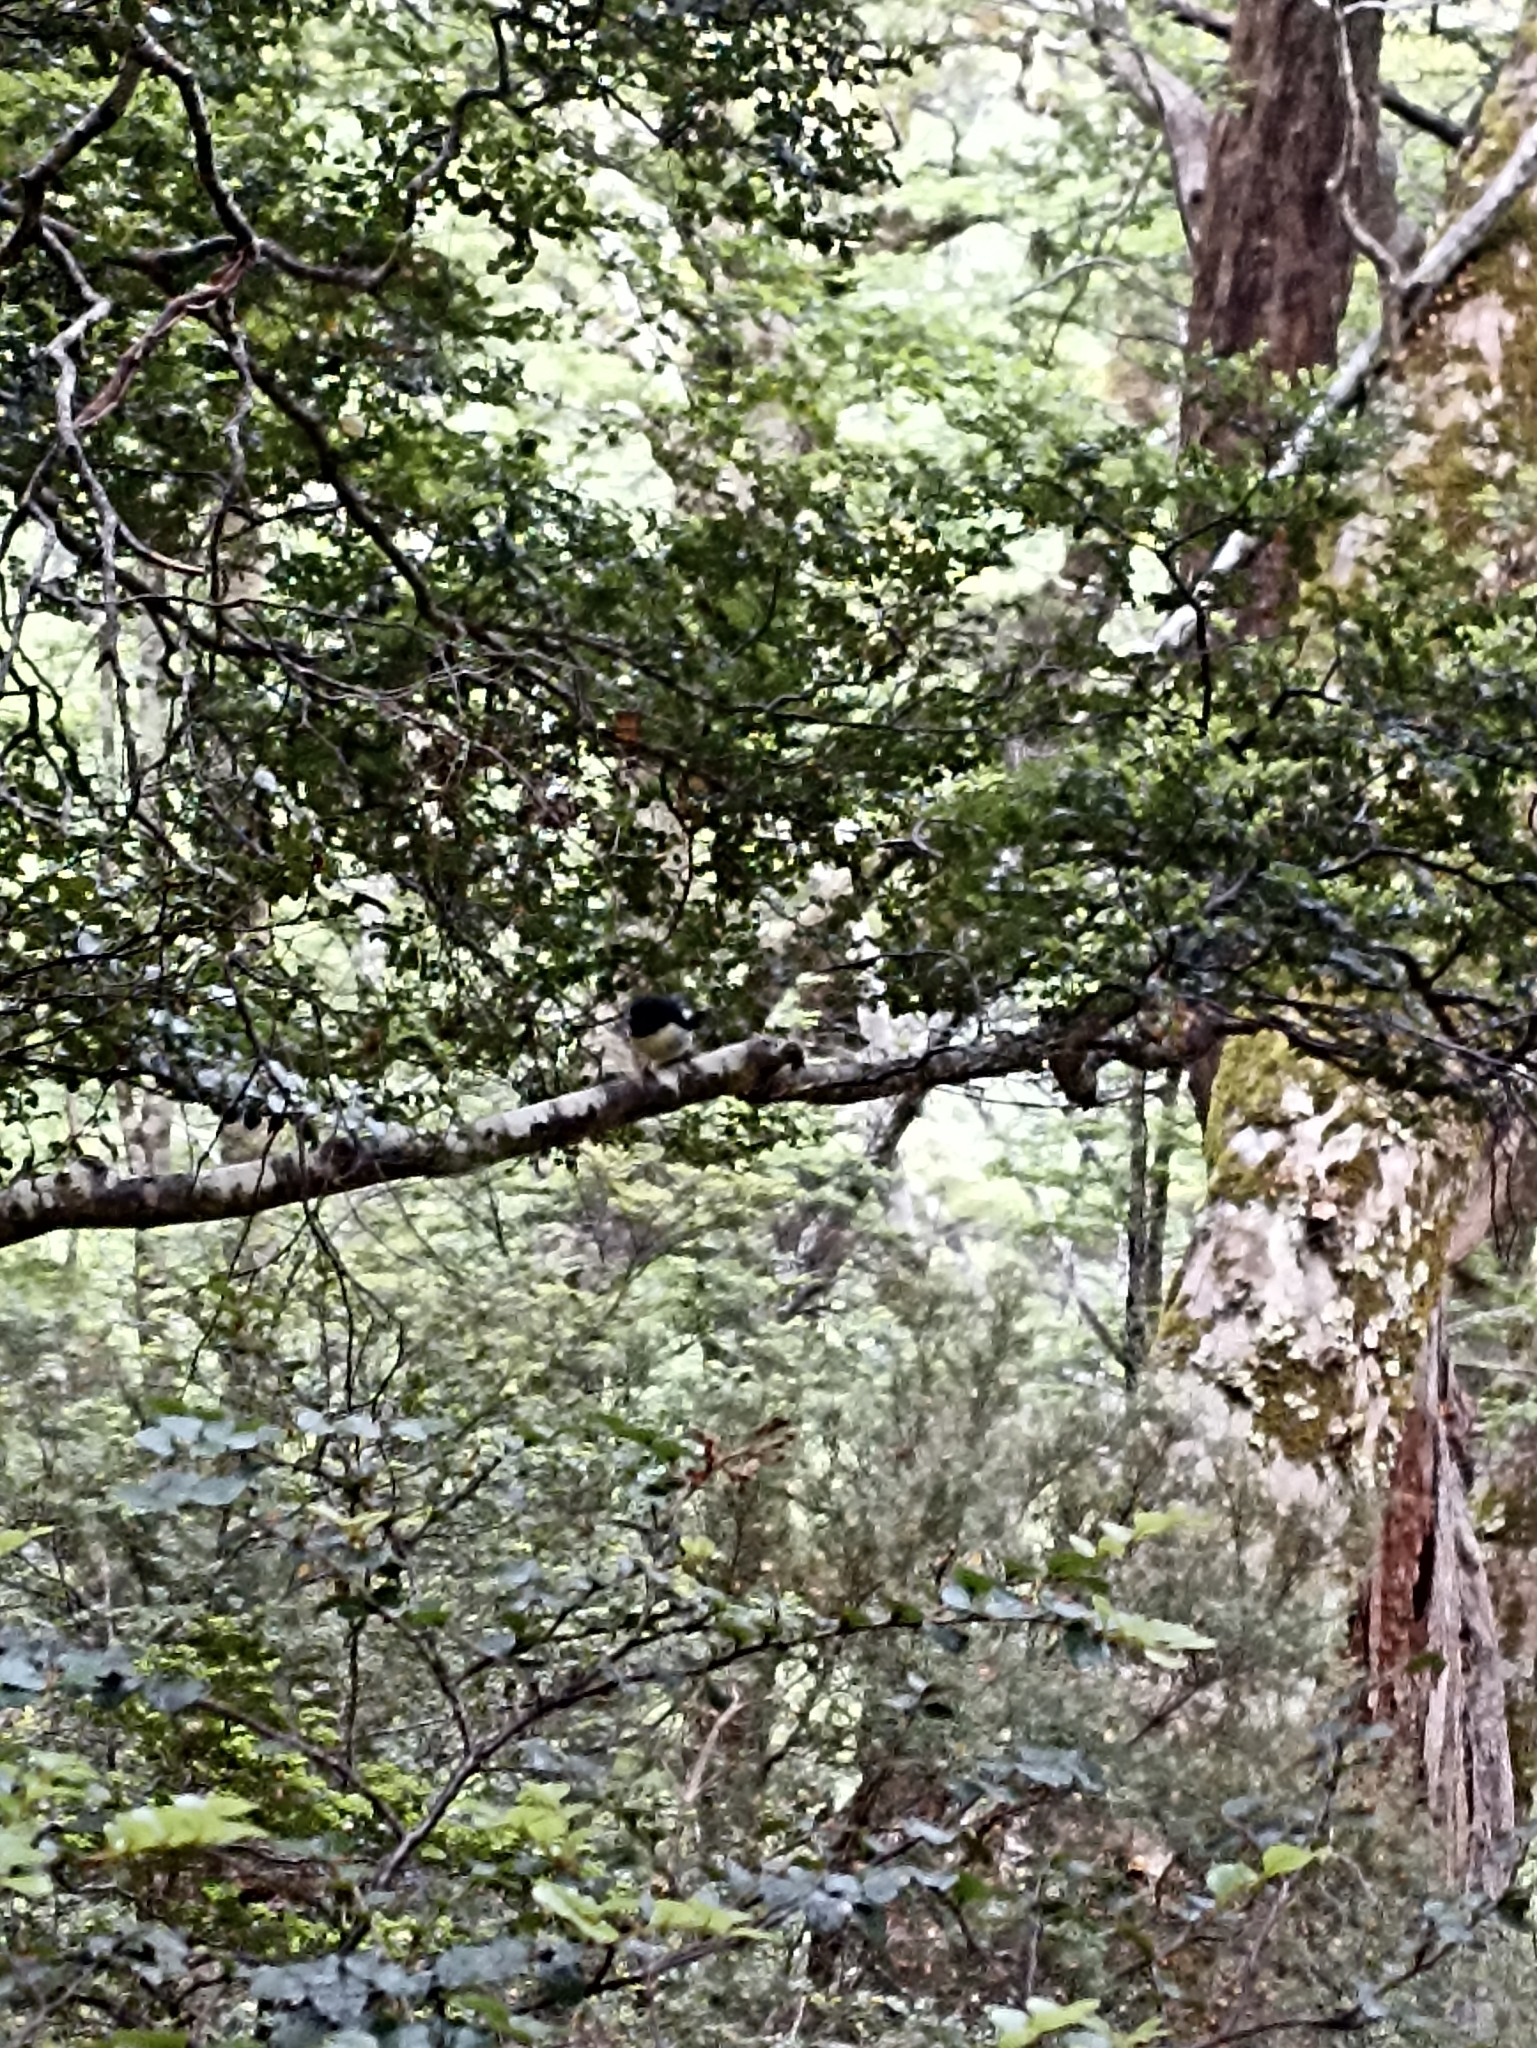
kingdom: Animalia
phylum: Chordata
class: Aves
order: Passeriformes
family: Petroicidae
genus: Petroica
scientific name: Petroica macrocephala
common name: Tomtit
